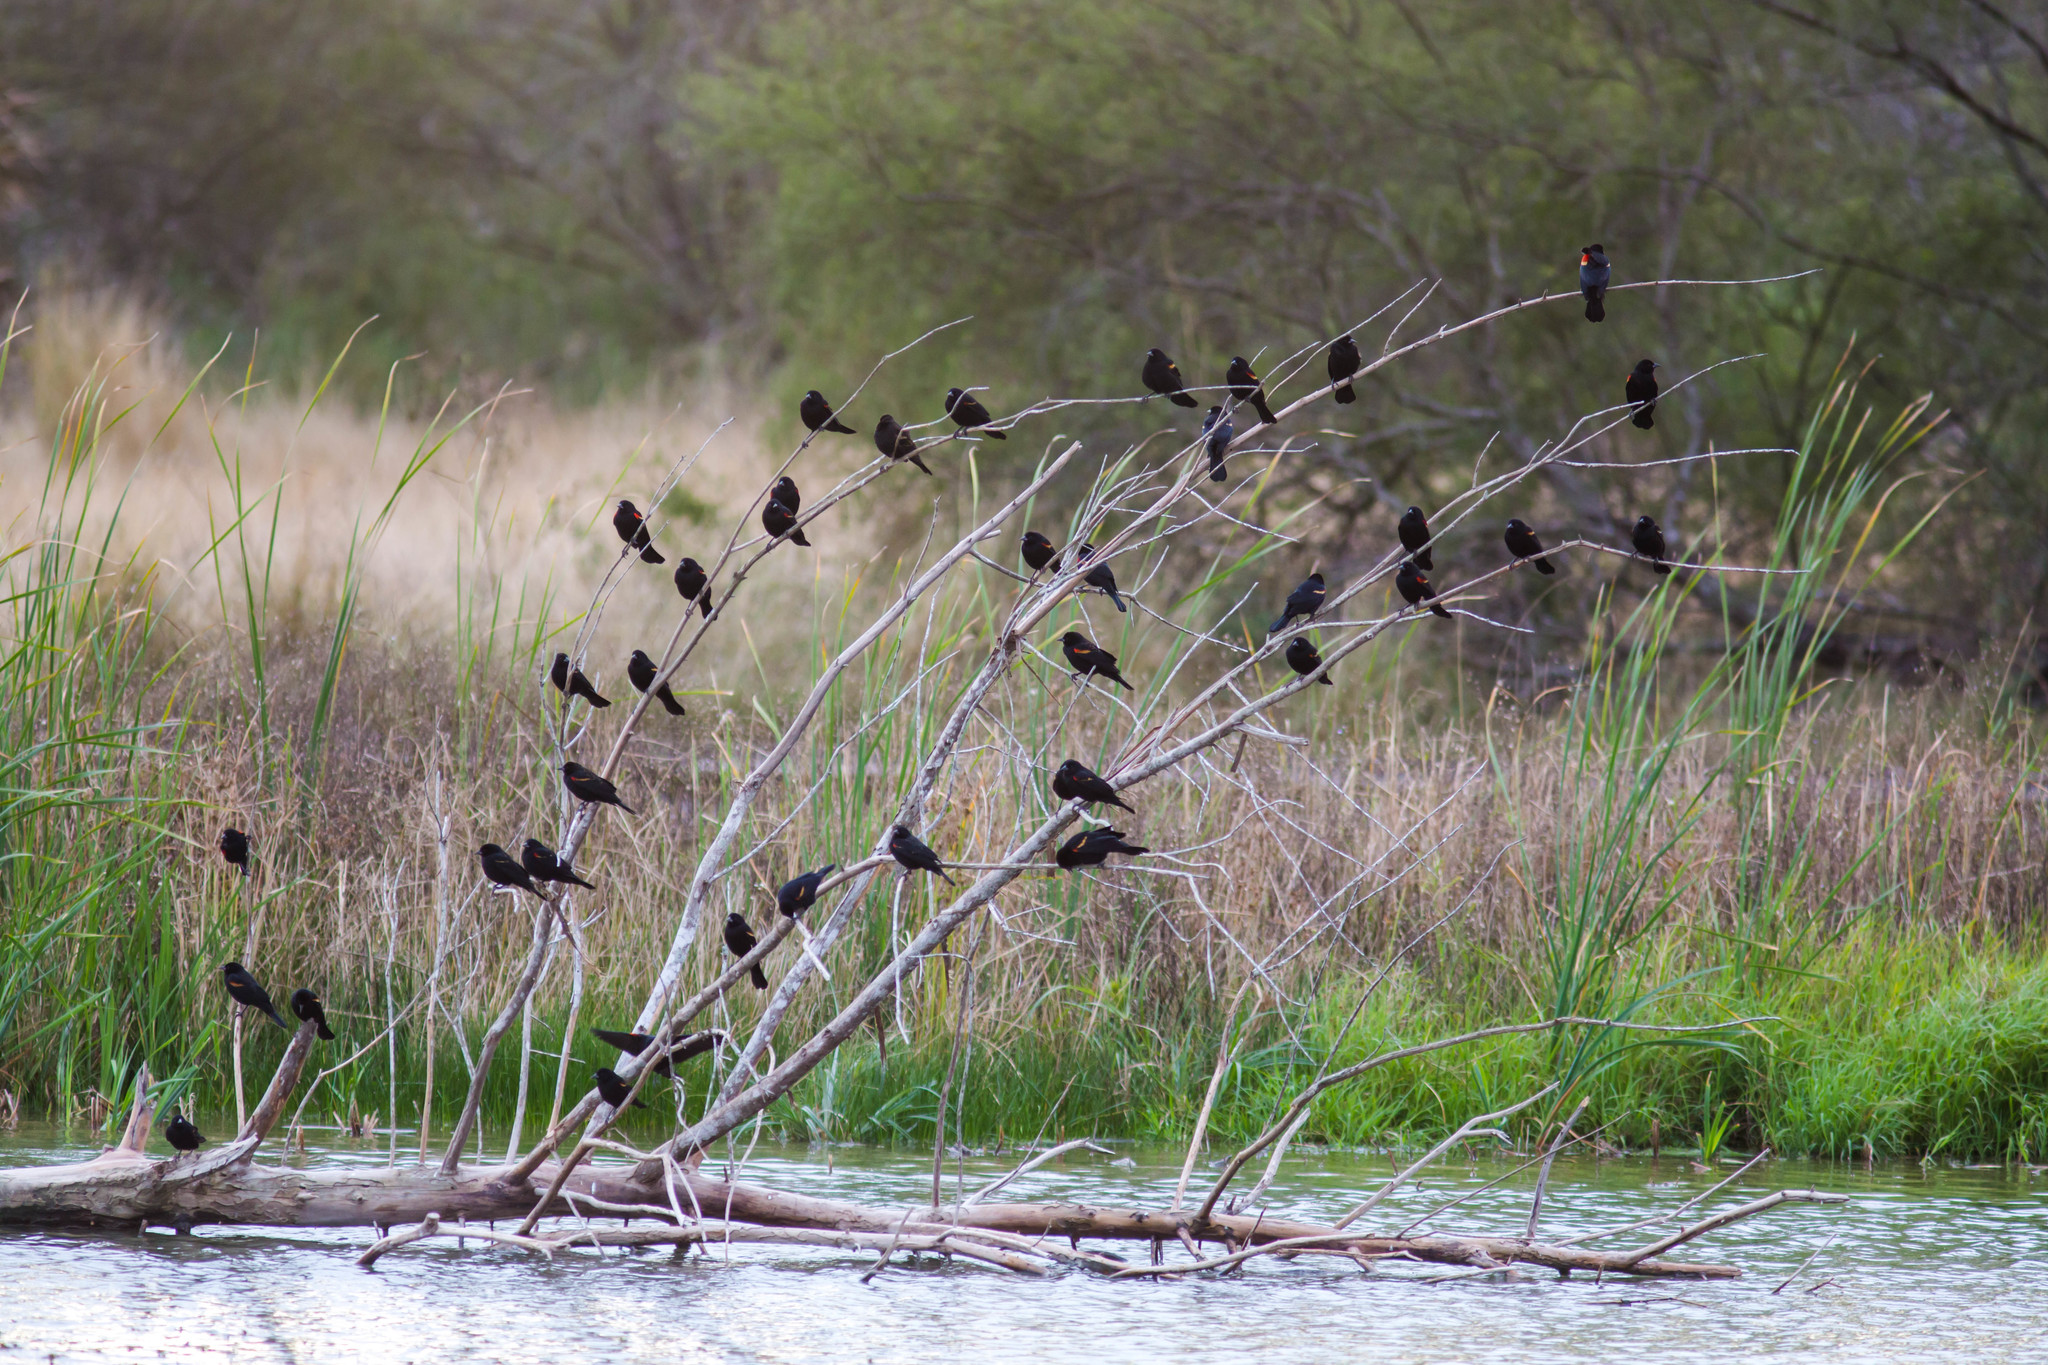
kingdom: Animalia
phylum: Chordata
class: Aves
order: Passeriformes
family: Icteridae
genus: Agelaius
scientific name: Agelaius phoeniceus
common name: Red-winged blackbird
